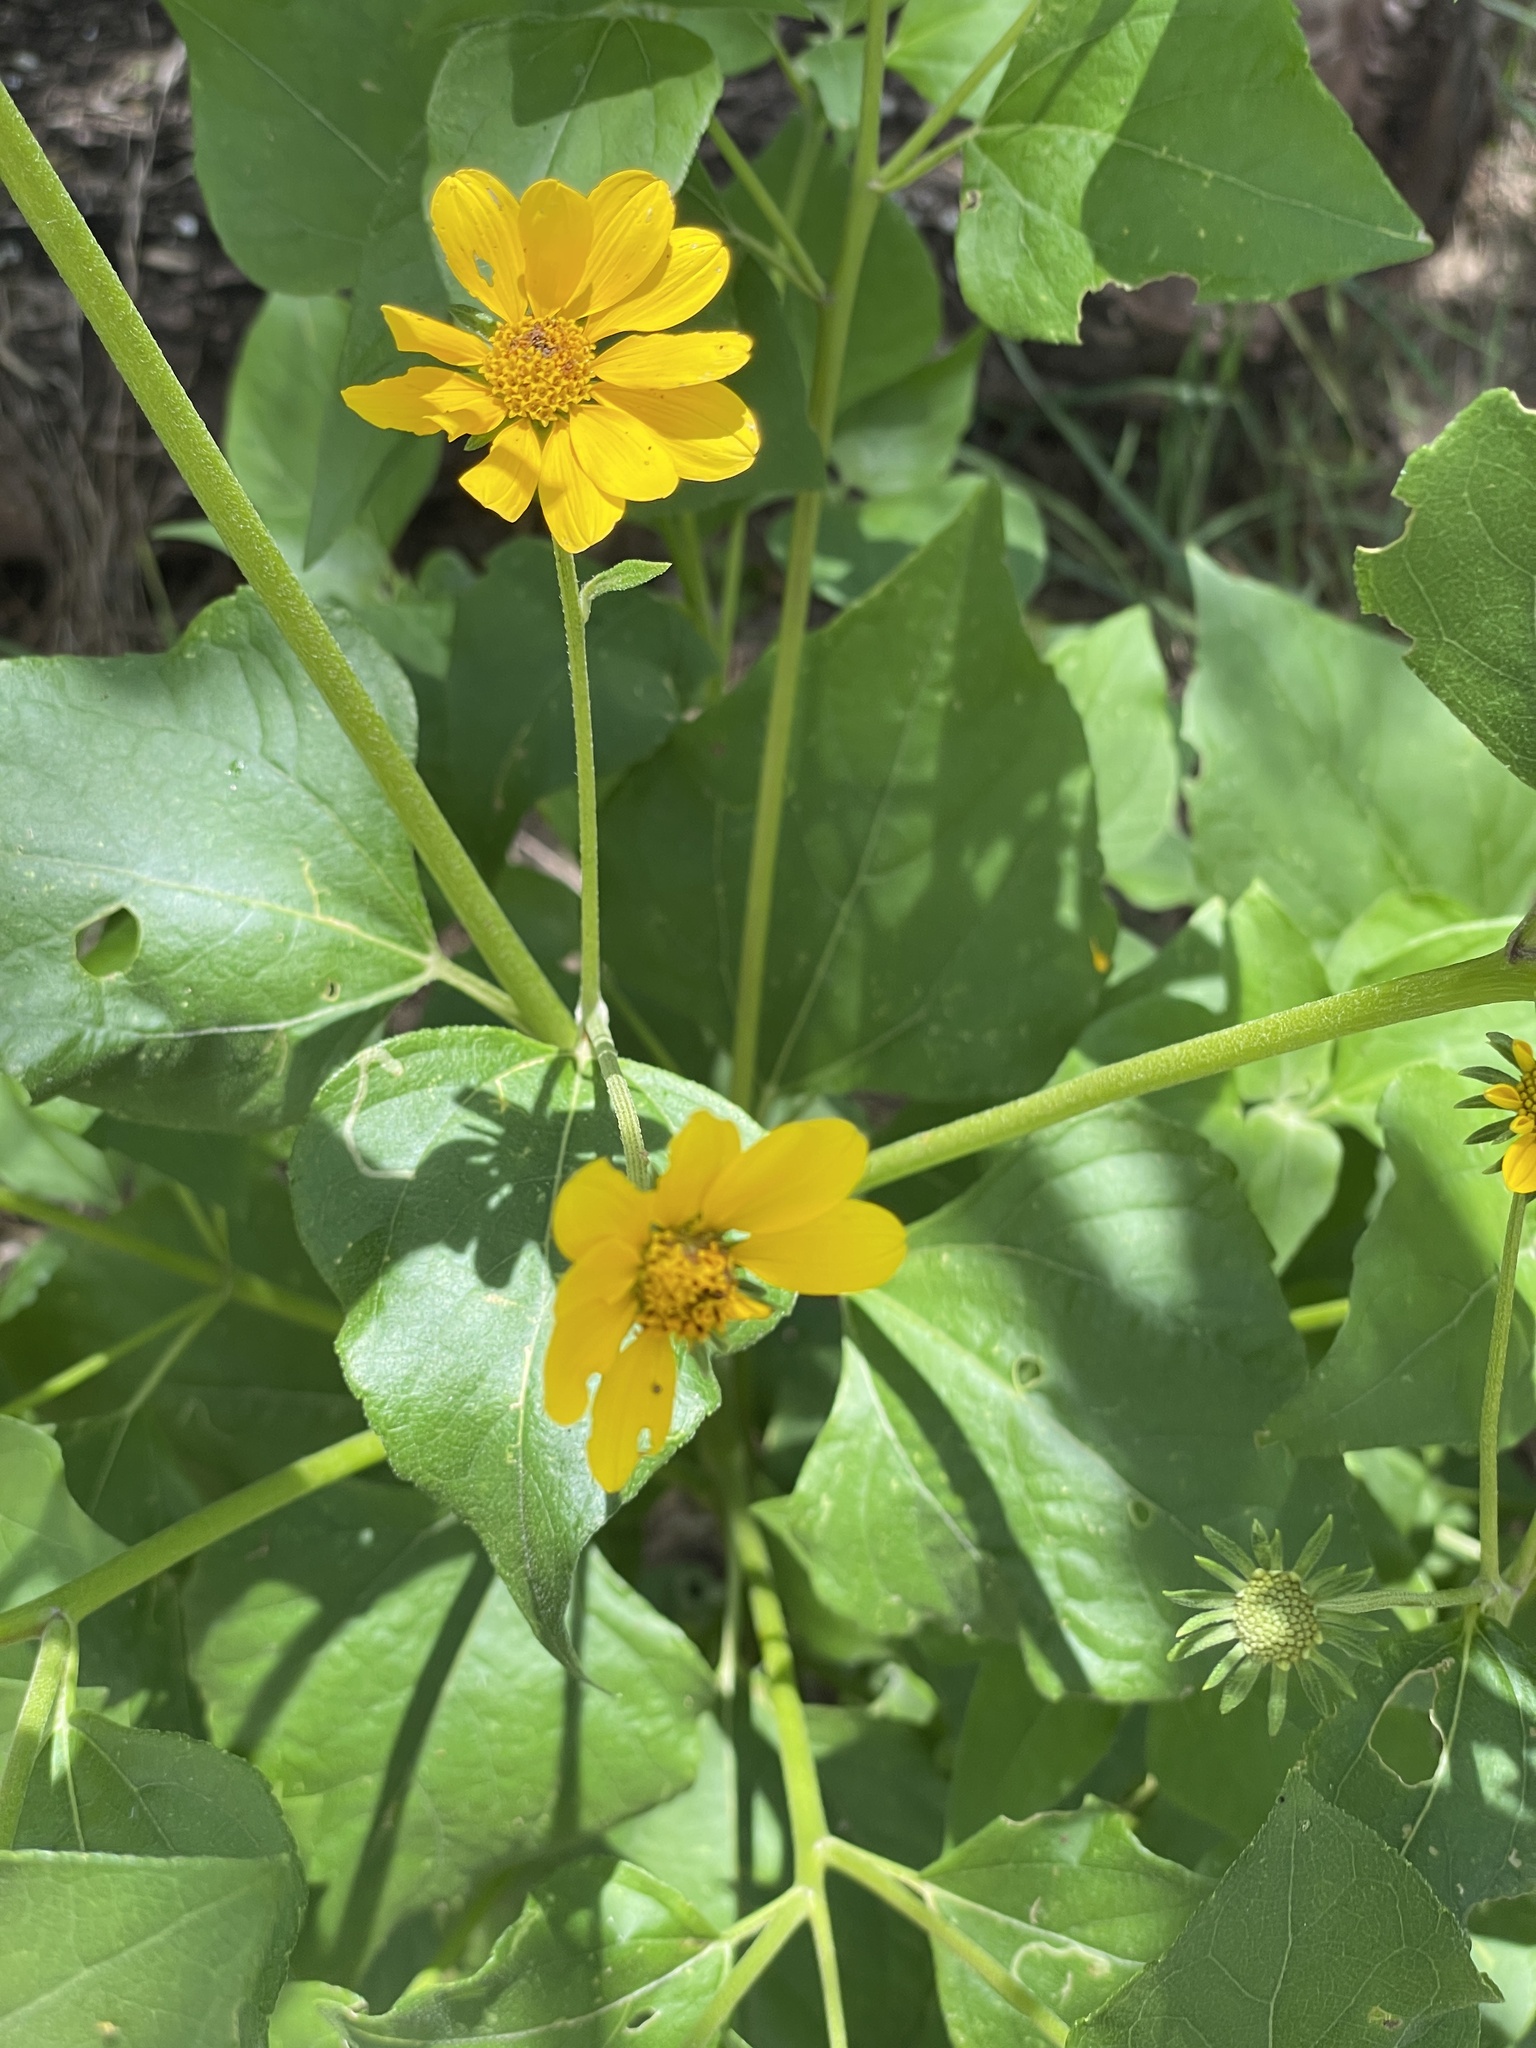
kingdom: Plantae
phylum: Tracheophyta
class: Magnoliopsida
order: Asterales
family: Asteraceae
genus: Viguiera
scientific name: Viguiera dentata
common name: Toothleaf
